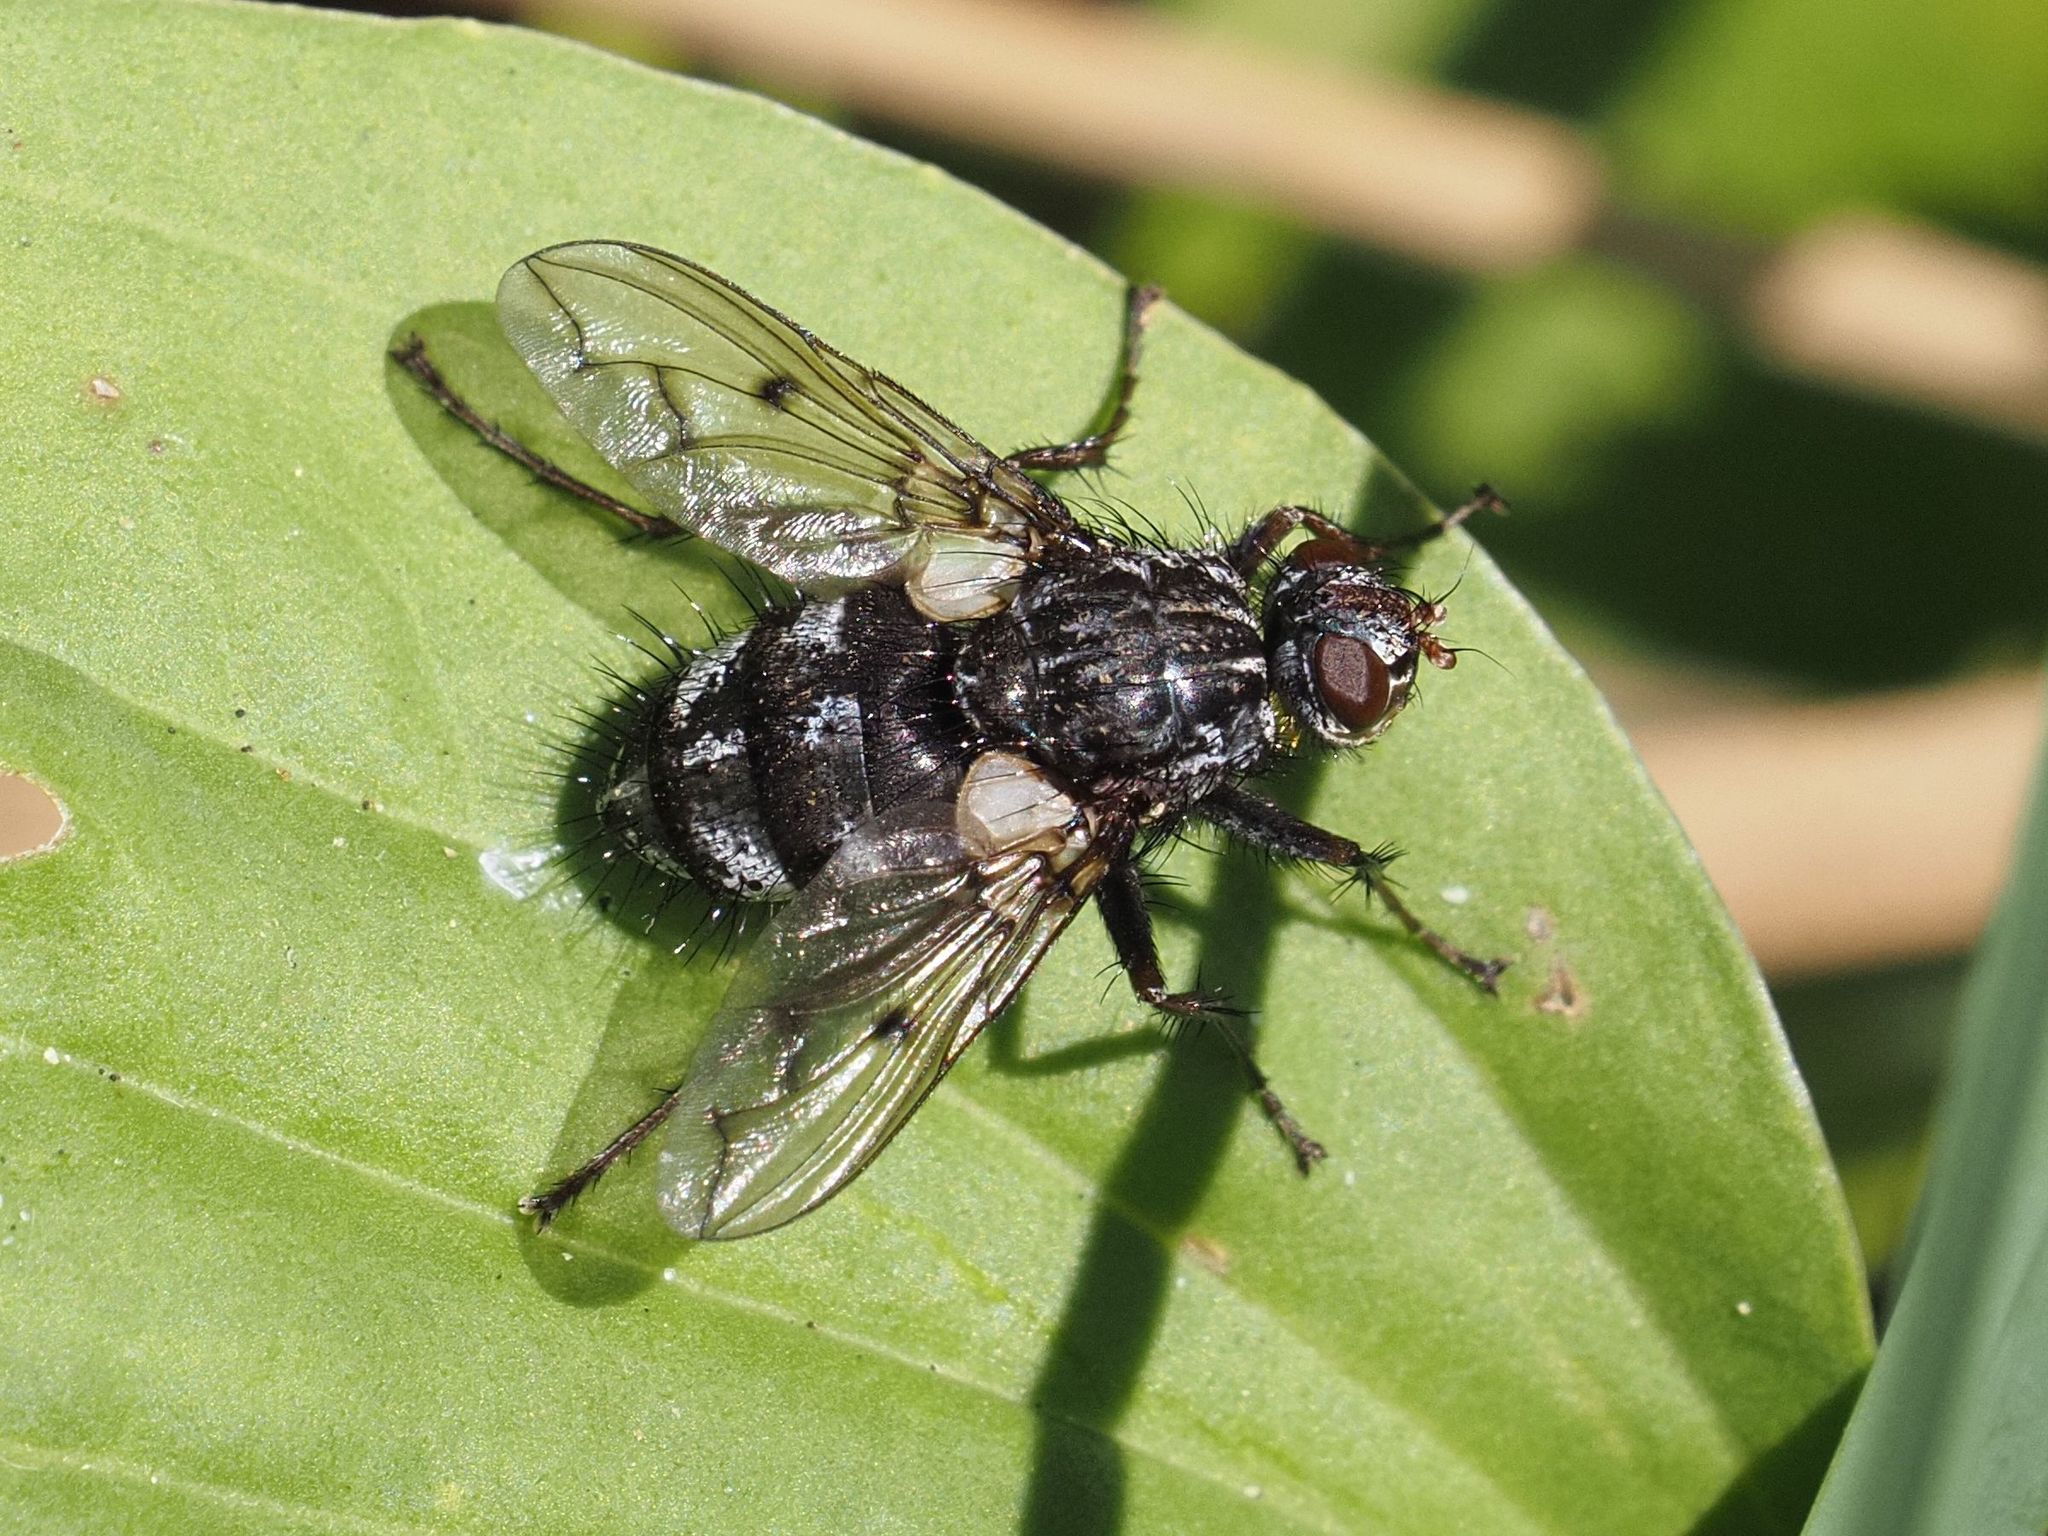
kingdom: Animalia
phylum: Arthropoda
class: Insecta
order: Diptera
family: Tachinidae
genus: Trixa
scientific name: Trixa conspersa
